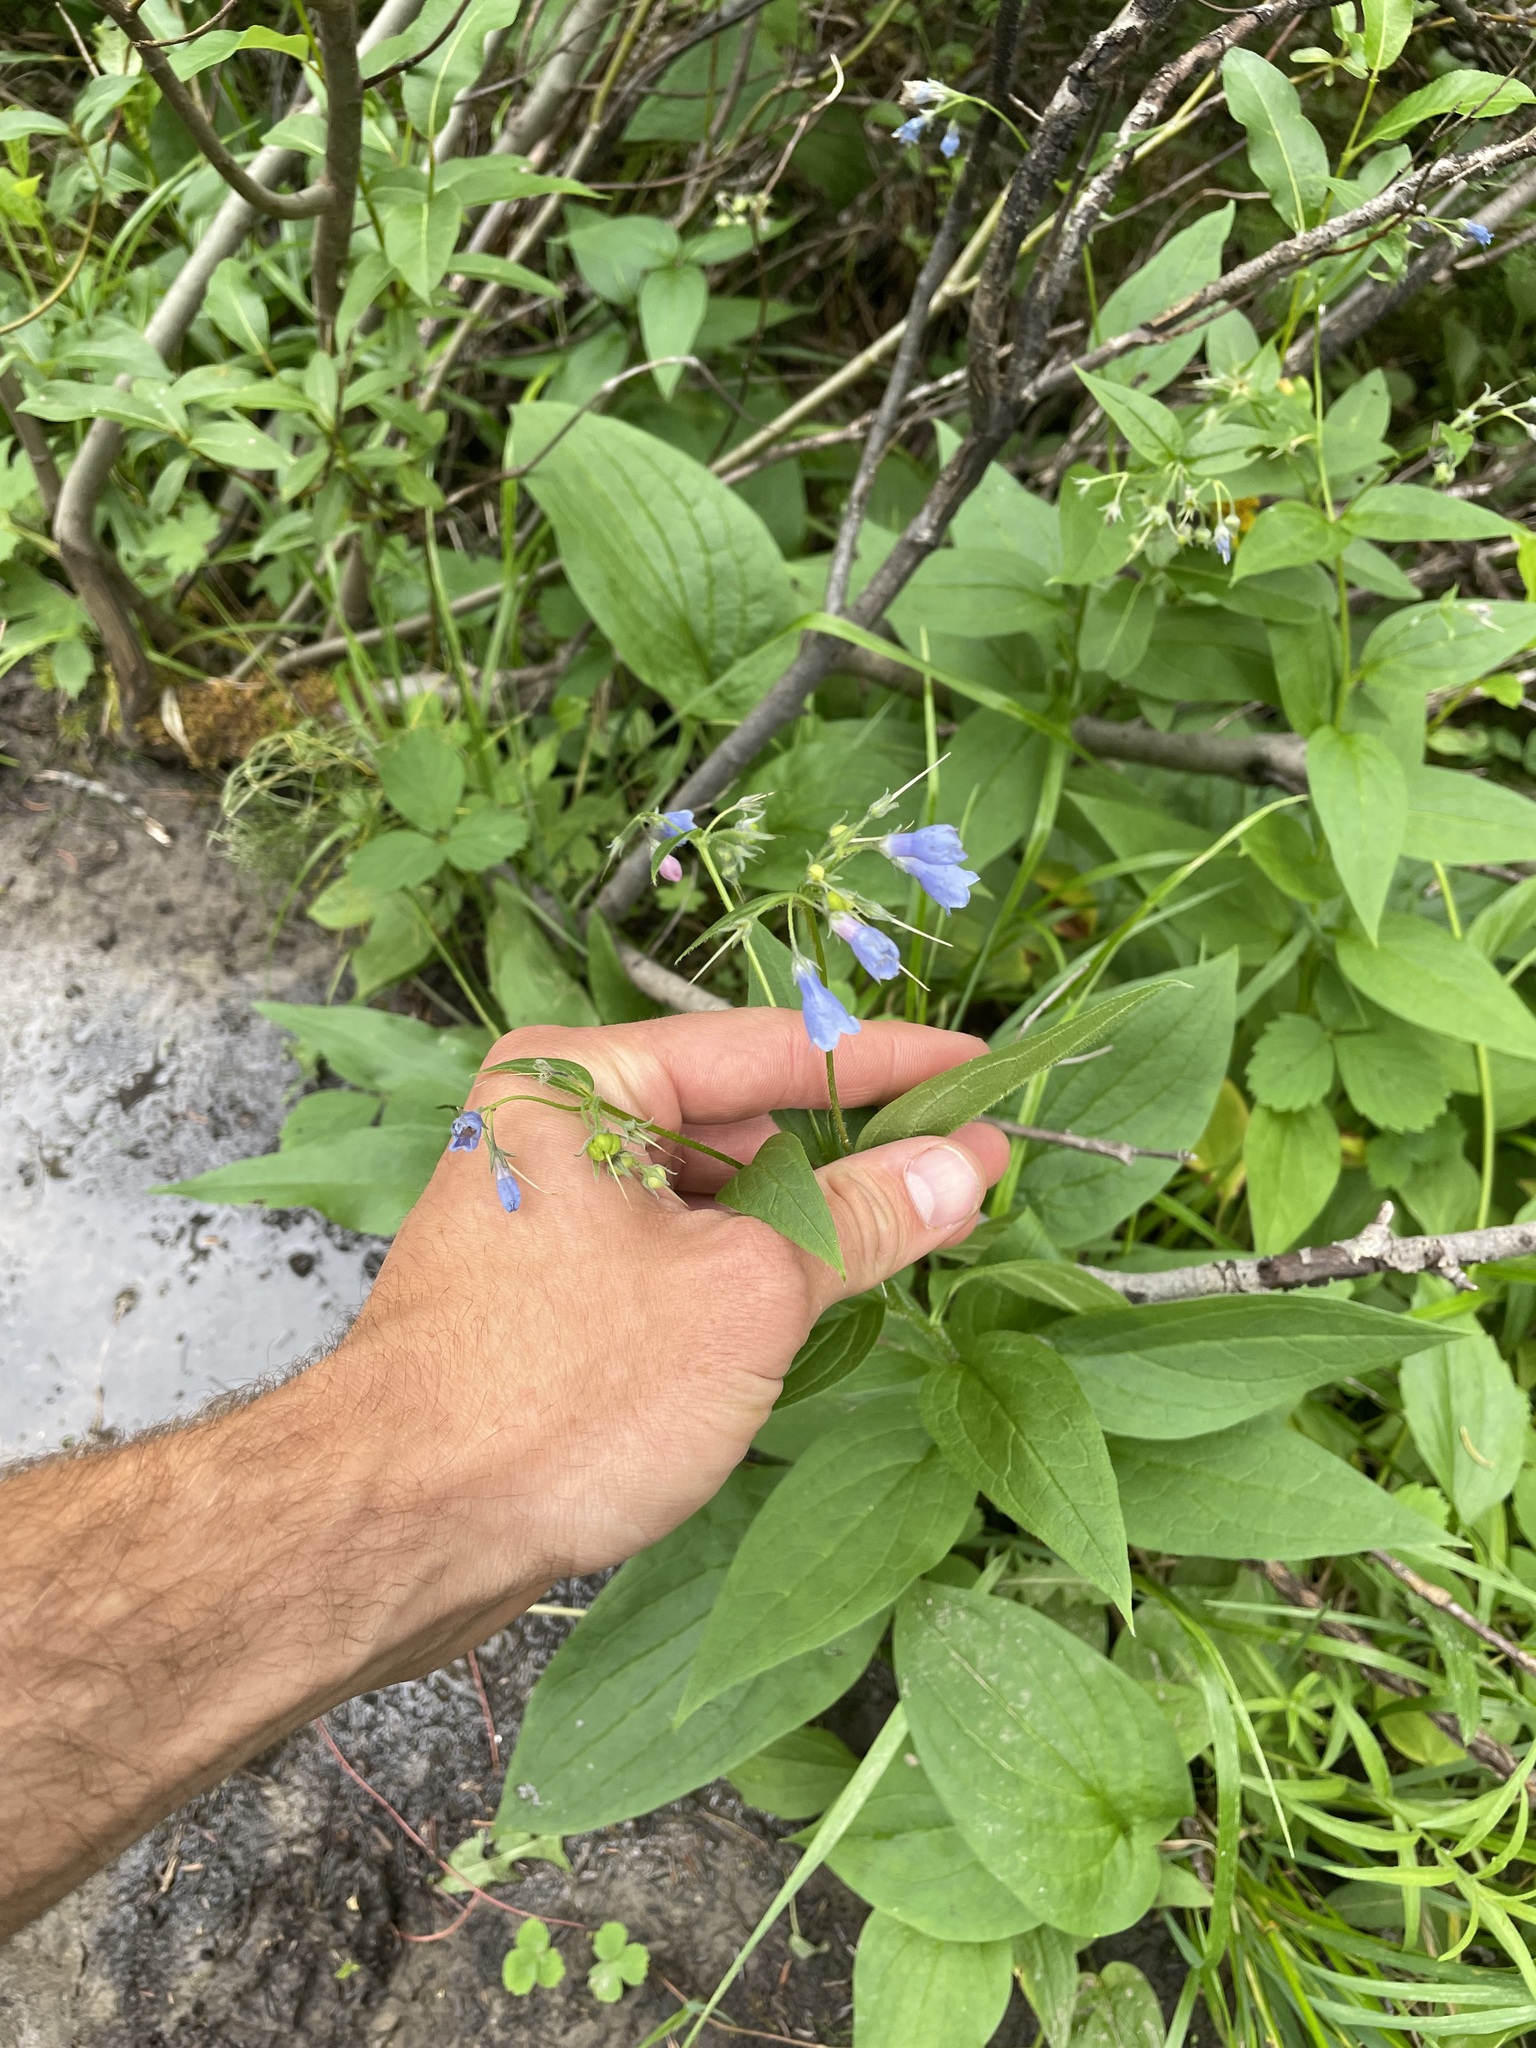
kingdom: Plantae
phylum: Tracheophyta
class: Magnoliopsida
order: Boraginales
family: Boraginaceae
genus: Mertensia
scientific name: Mertensia paniculata
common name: Panicled bluebells
